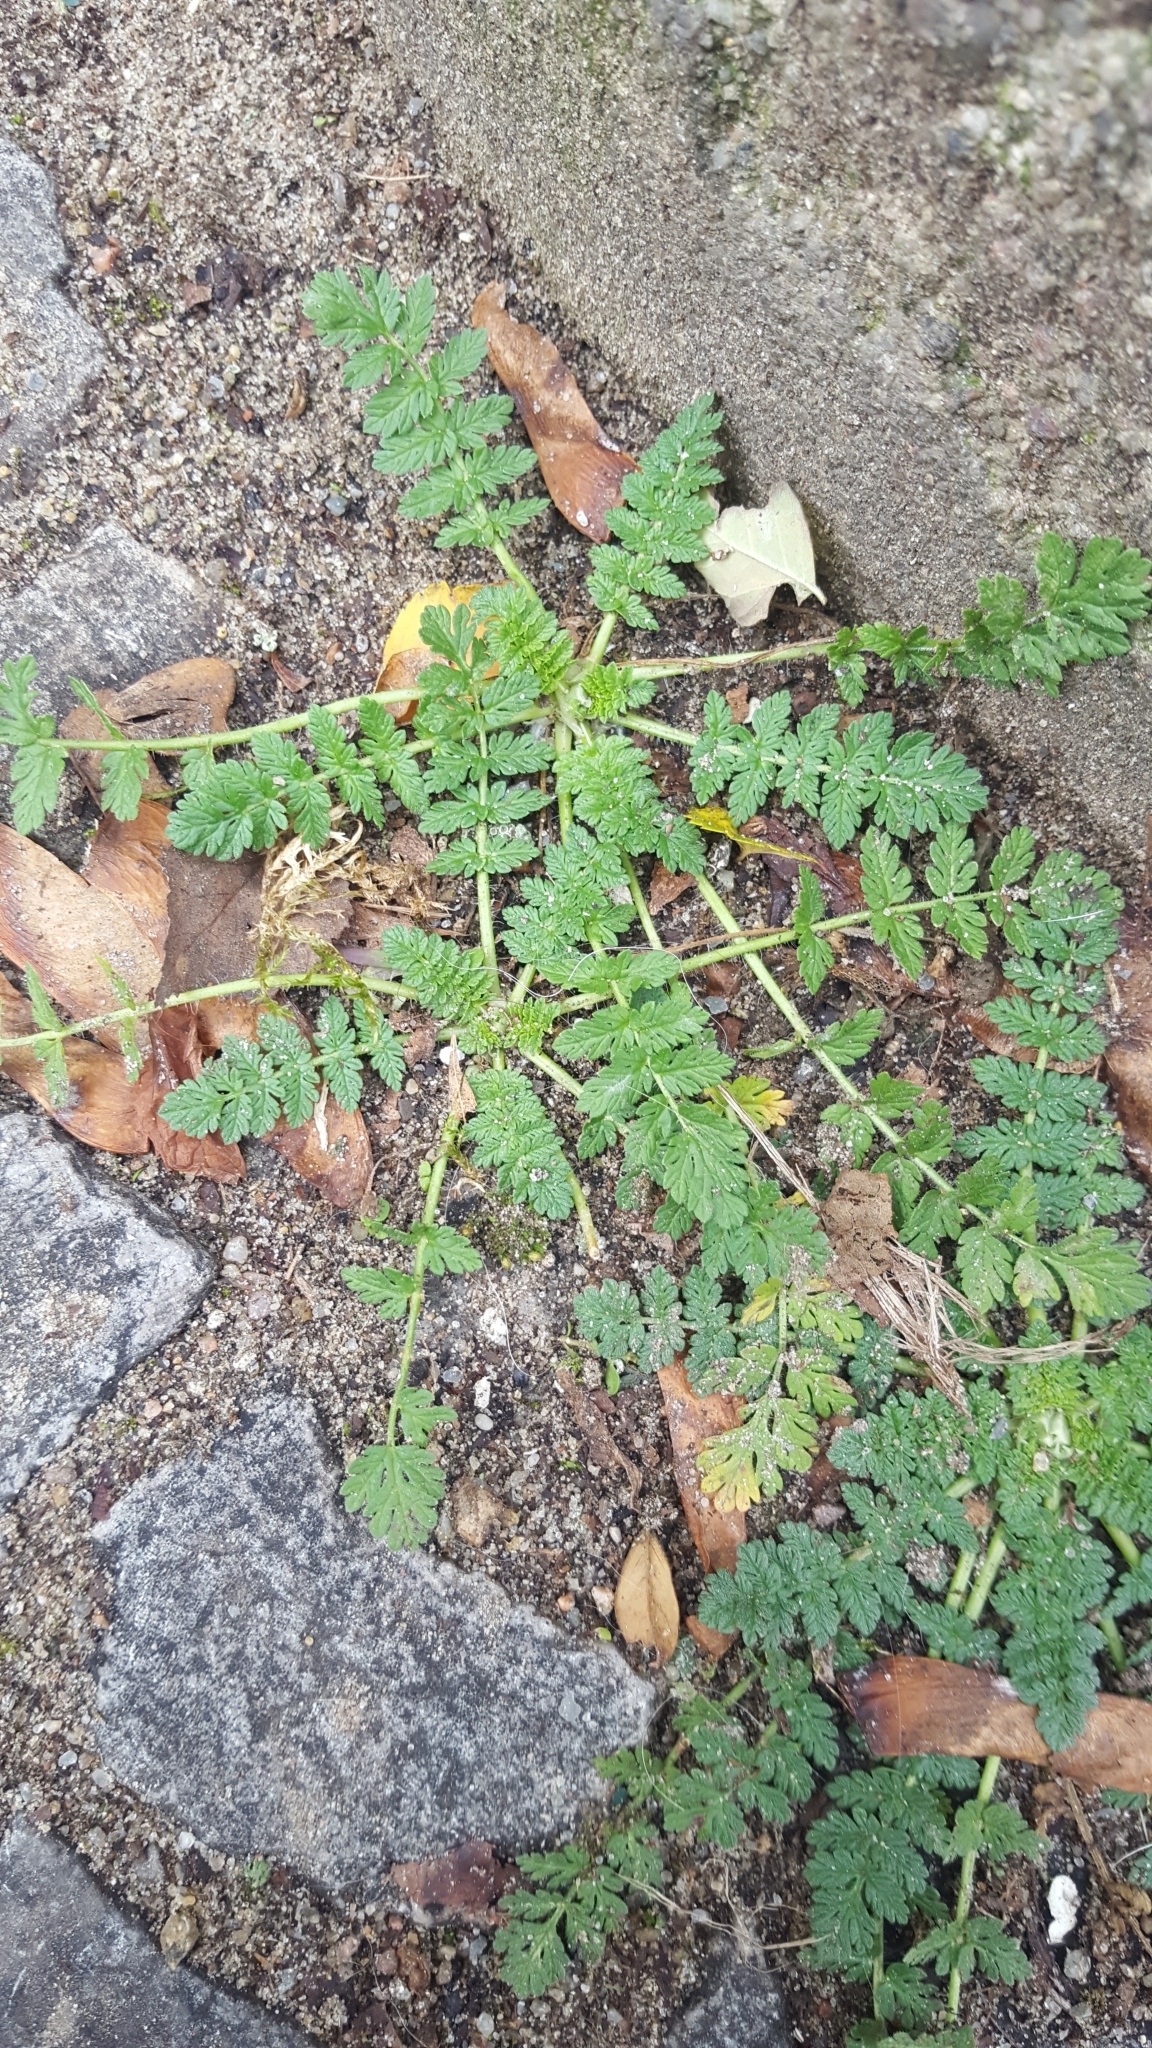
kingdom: Plantae
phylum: Tracheophyta
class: Magnoliopsida
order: Geraniales
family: Geraniaceae
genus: Erodium
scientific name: Erodium cicutarium
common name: Common stork's-bill
